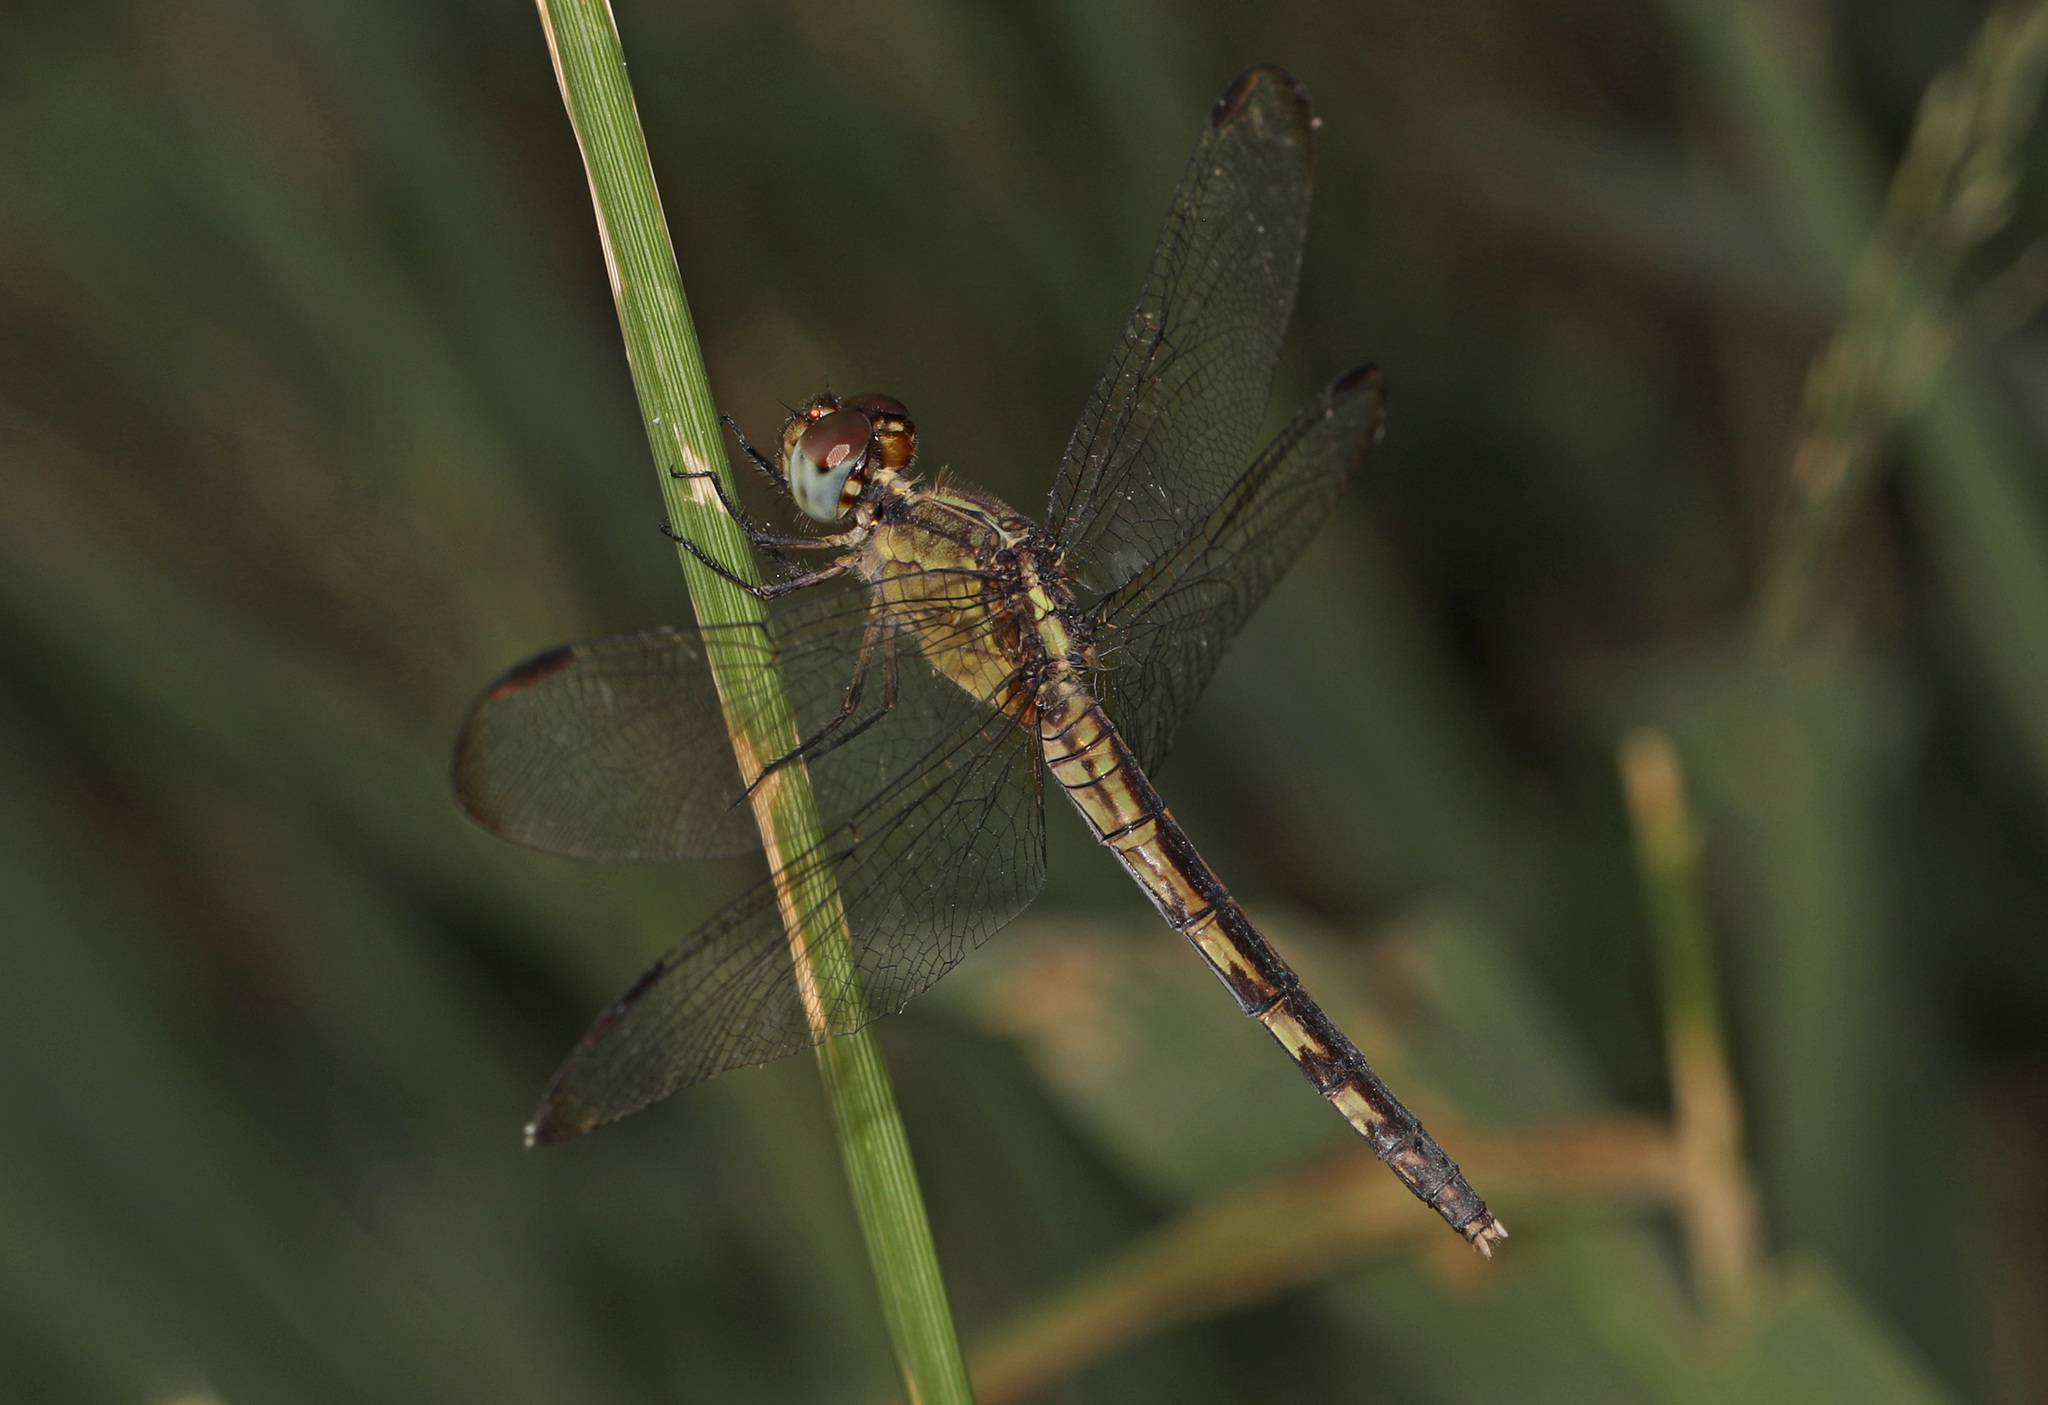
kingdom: Animalia
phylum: Arthropoda
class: Insecta
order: Odonata
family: Libellulidae
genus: Erythrodiplax
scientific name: Erythrodiplax umbrata
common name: Band-winged dragonlet
